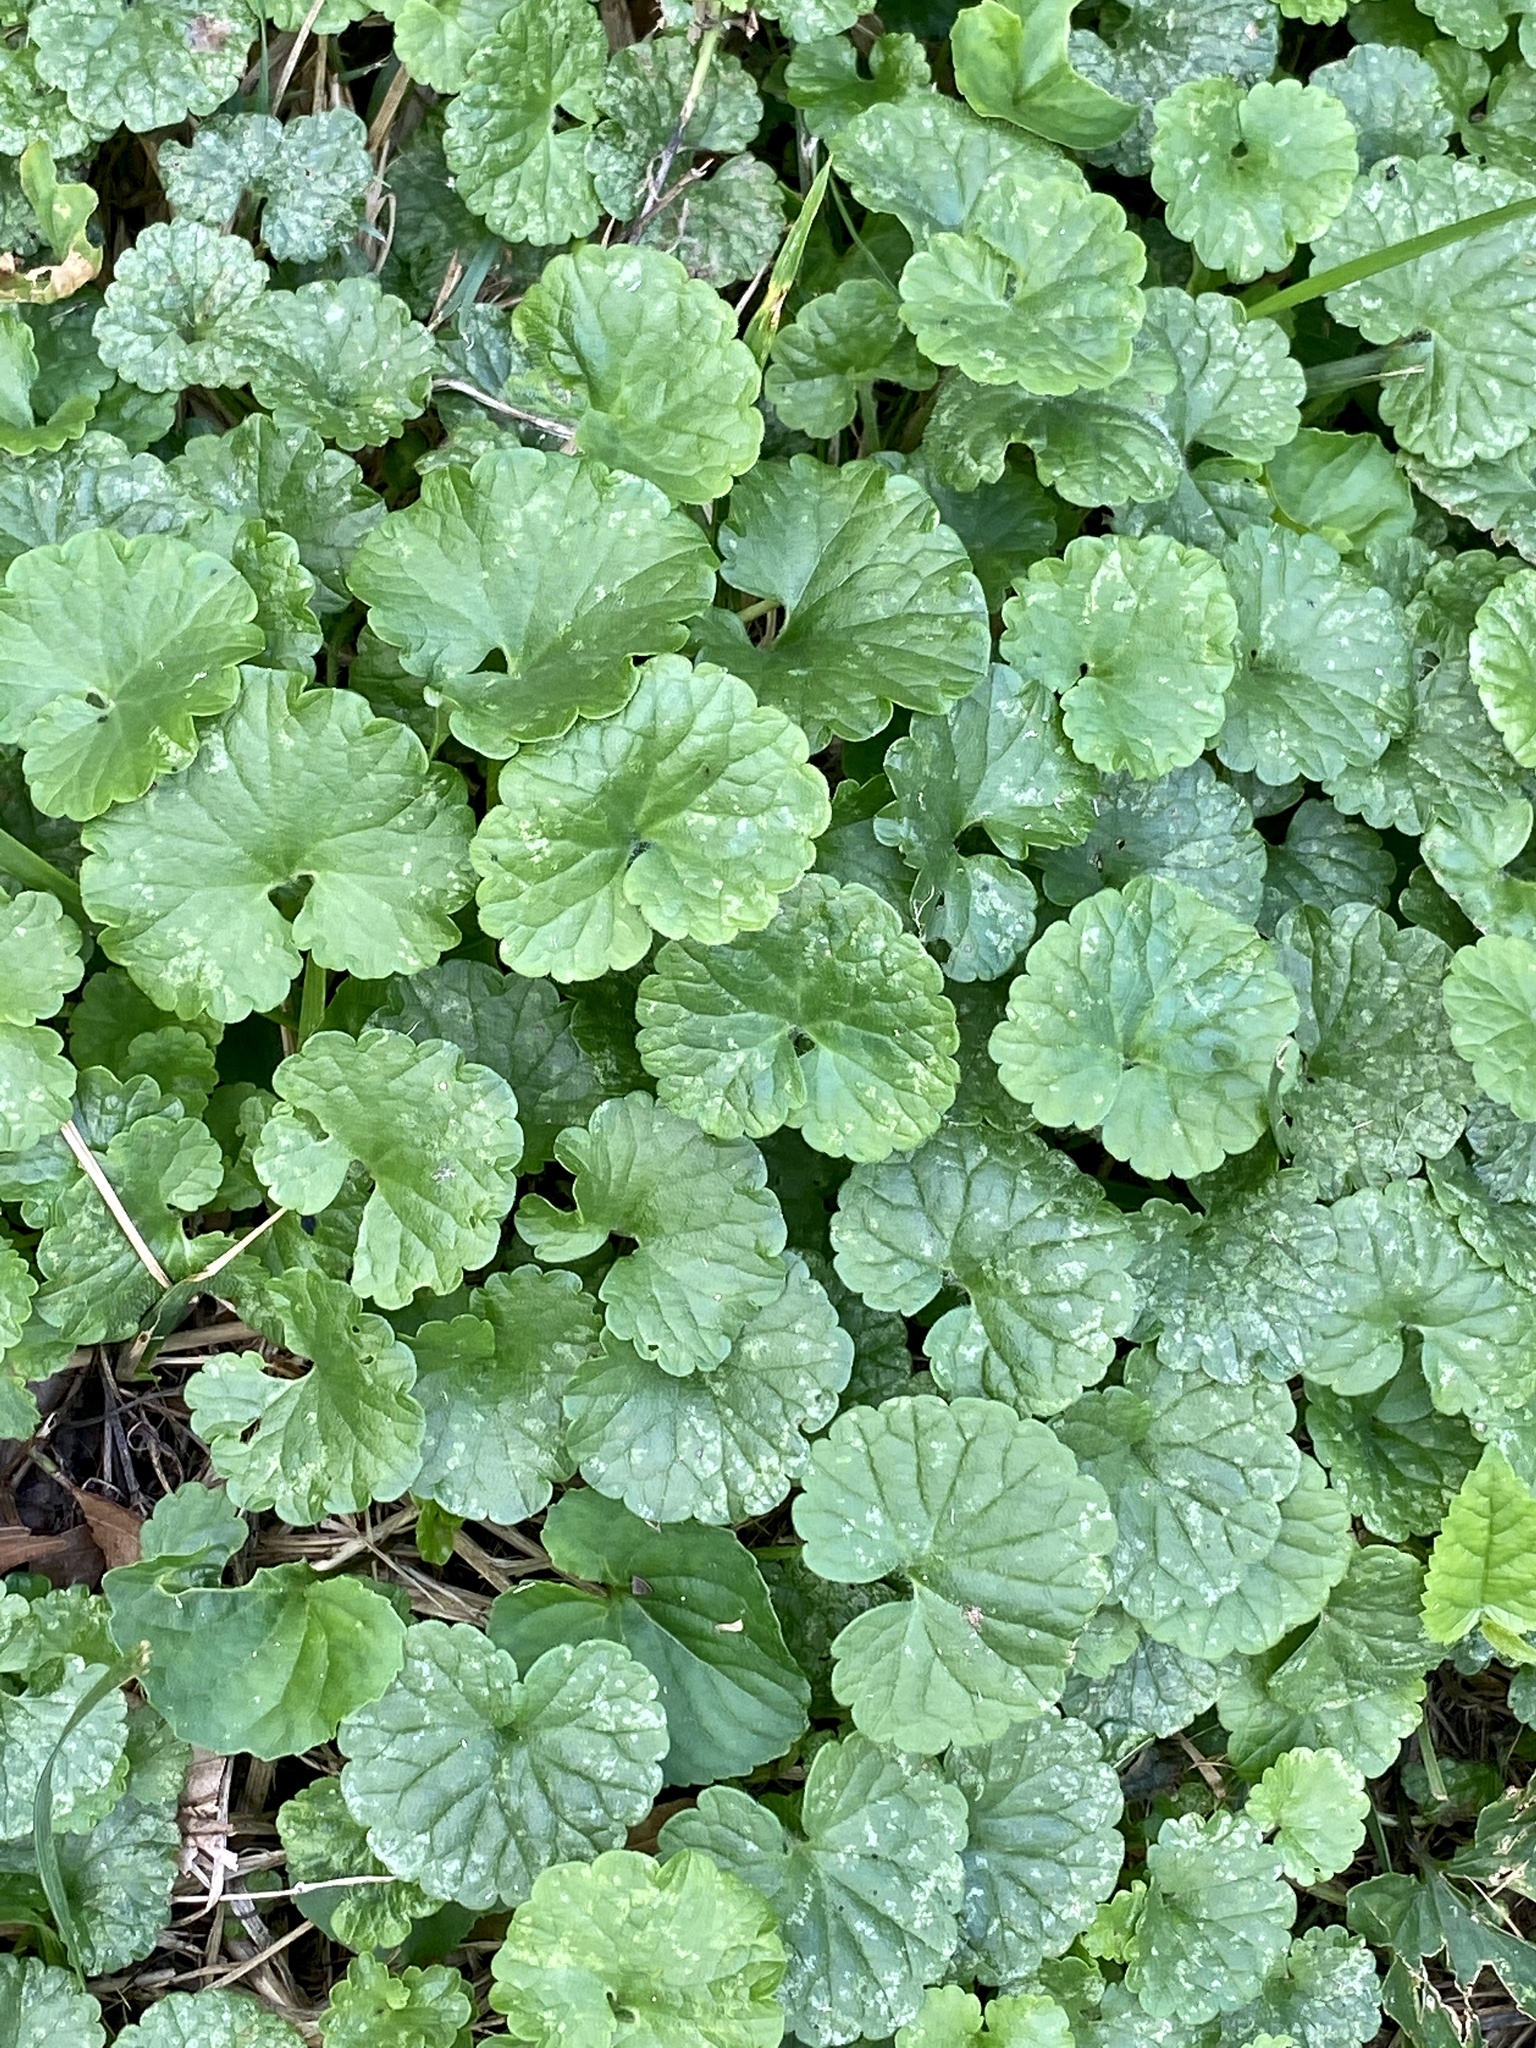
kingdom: Plantae
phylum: Tracheophyta
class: Magnoliopsida
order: Lamiales
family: Lamiaceae
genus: Glechoma
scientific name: Glechoma hederacea
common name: Ground ivy
